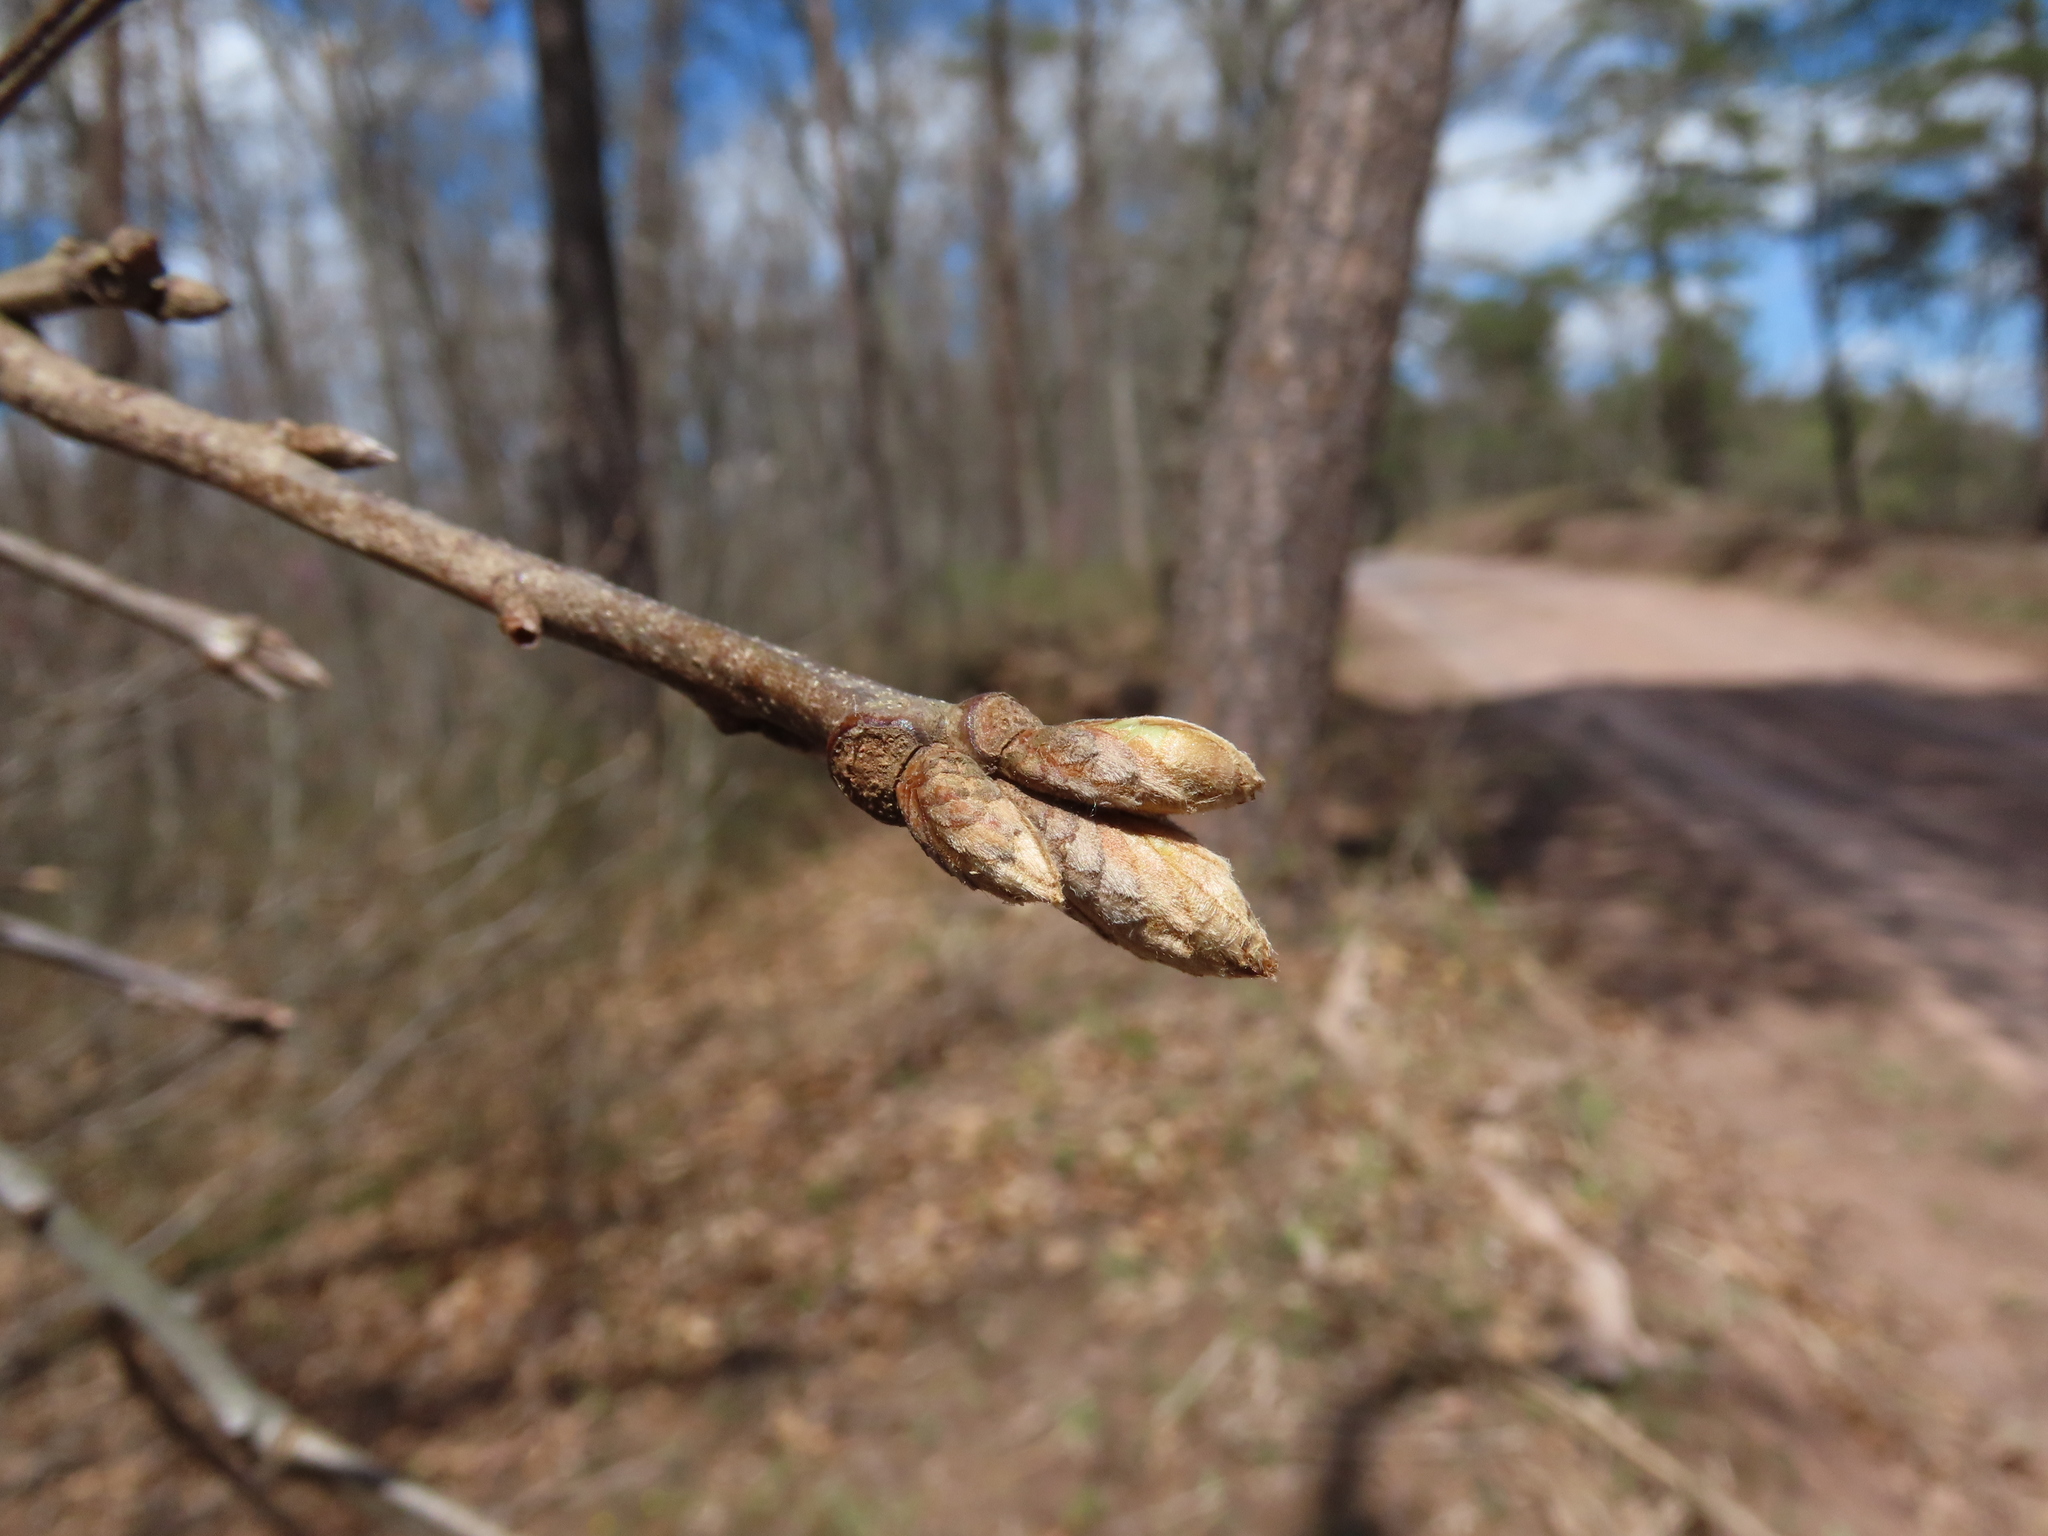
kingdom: Plantae
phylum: Tracheophyta
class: Magnoliopsida
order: Fagales
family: Fagaceae
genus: Quercus
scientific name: Quercus velutina
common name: Black oak
